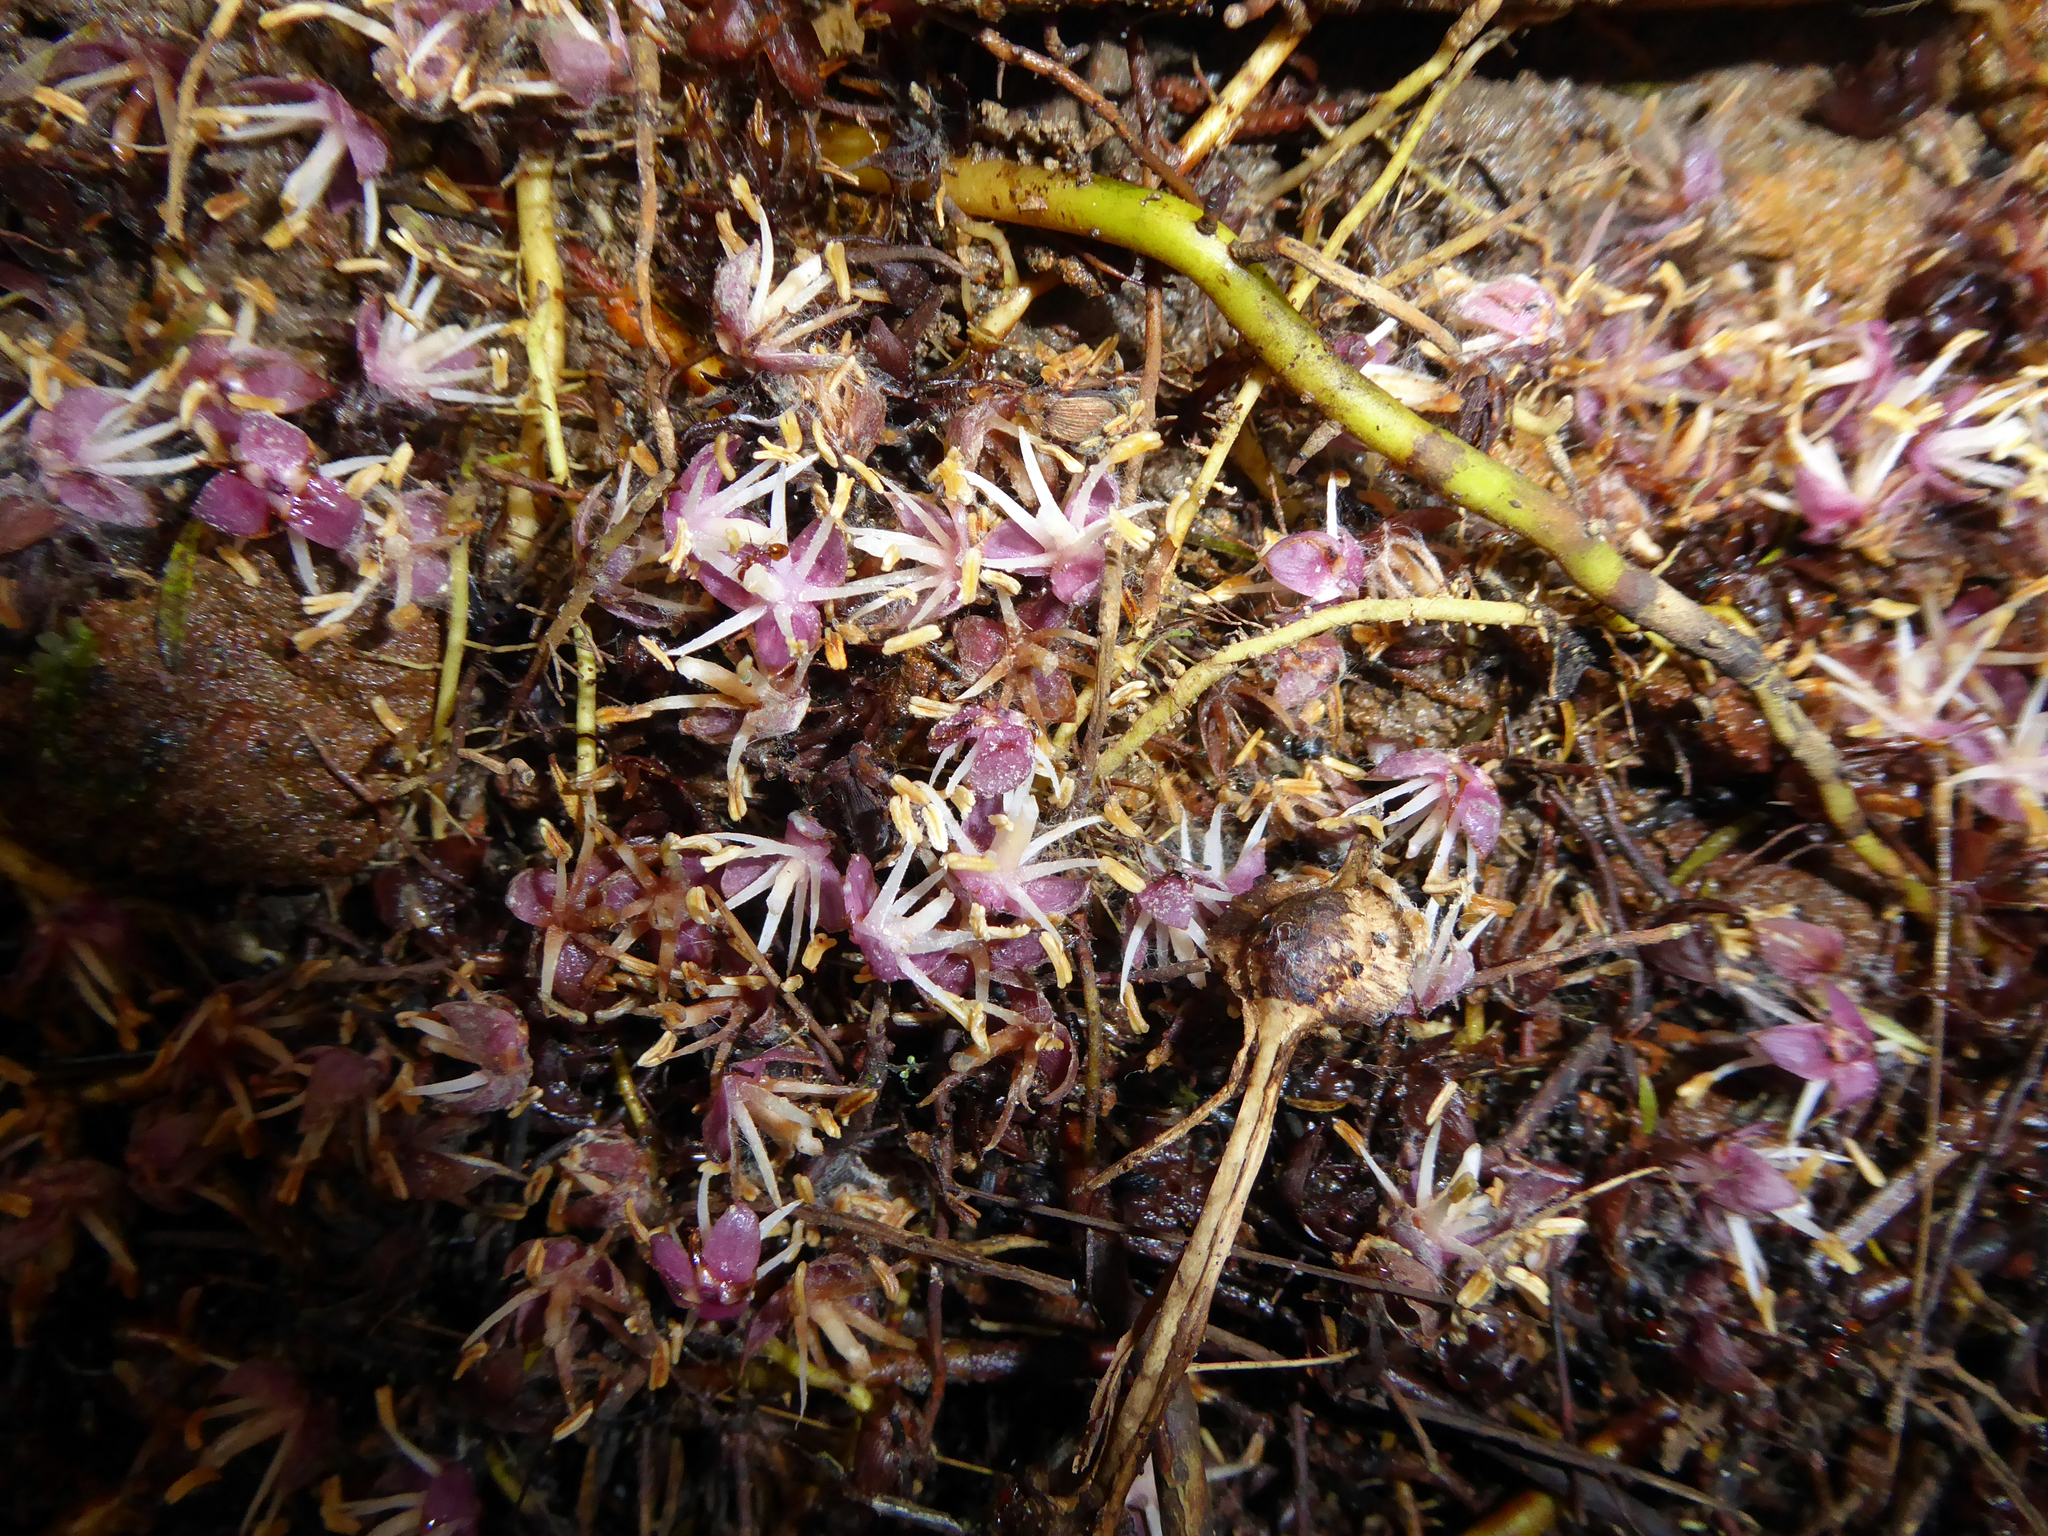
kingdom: Plantae
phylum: Tracheophyta
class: Liliopsida
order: Arecales
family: Arecaceae
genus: Rhopalostylis
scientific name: Rhopalostylis sapida
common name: Feather-duster palm
